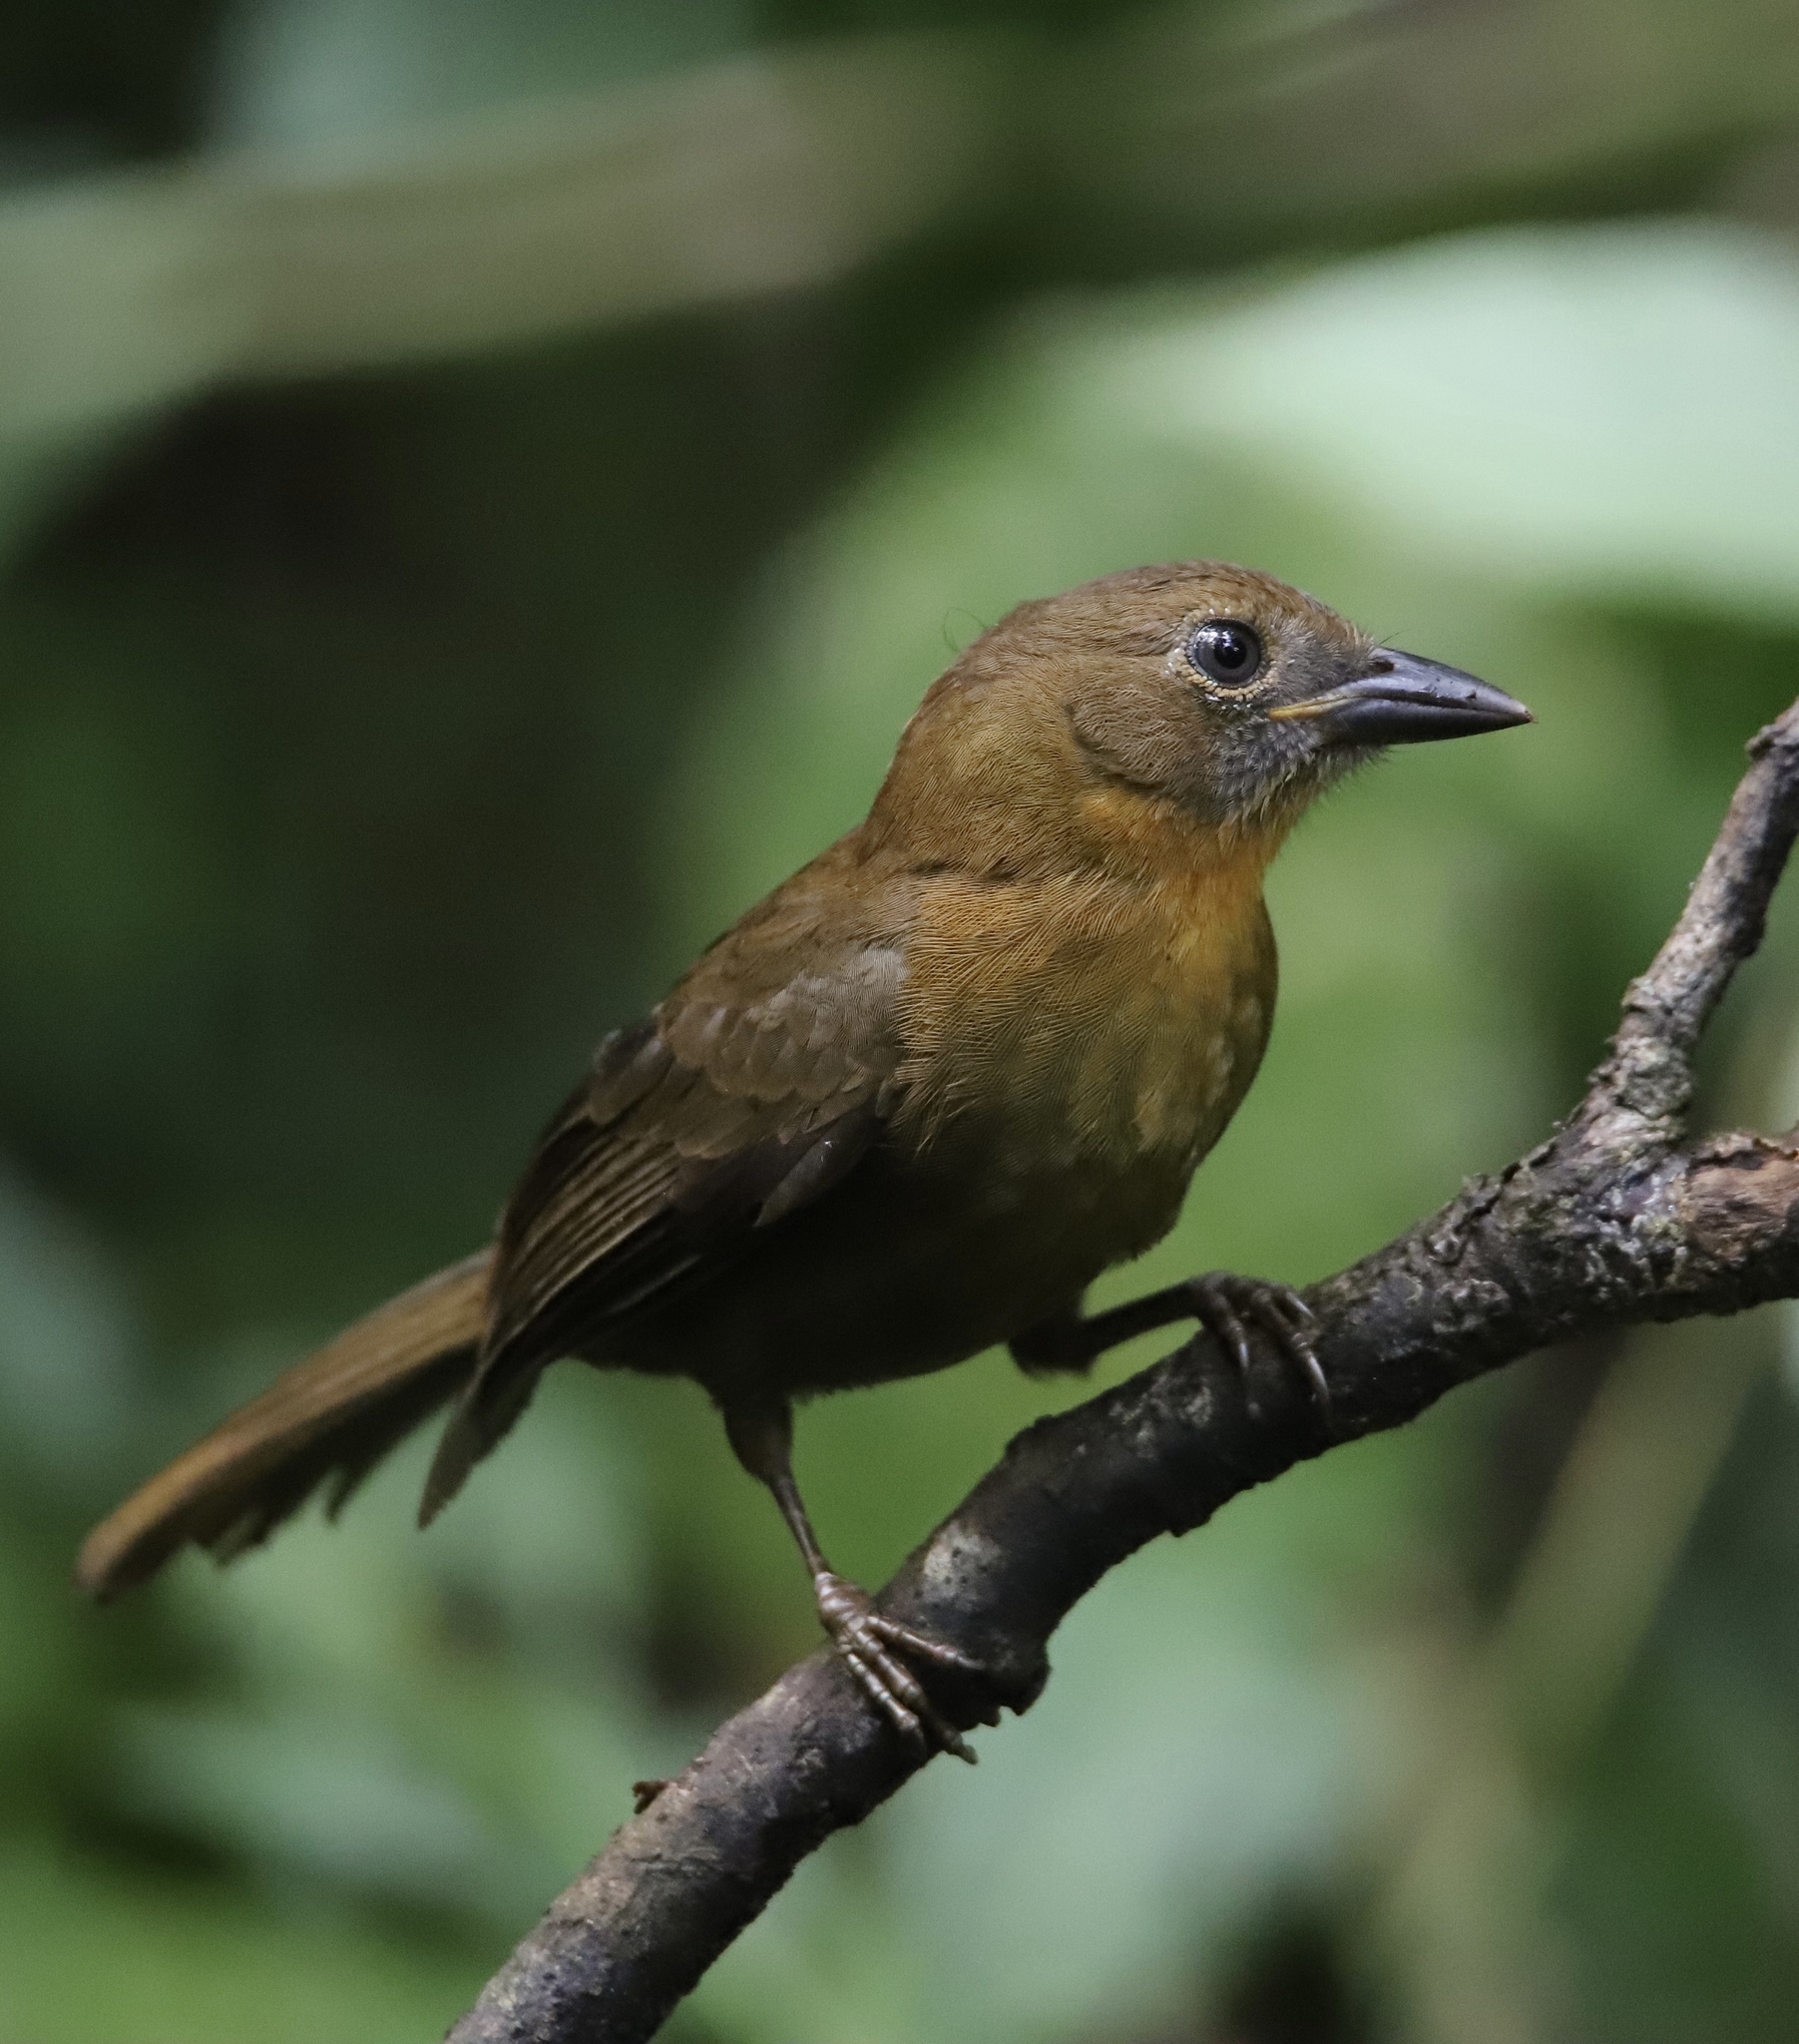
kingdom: Animalia
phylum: Chordata
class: Aves
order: Passeriformes
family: Cardinalidae
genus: Habia
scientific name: Habia fuscicauda
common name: Red-throated ant-tanager
